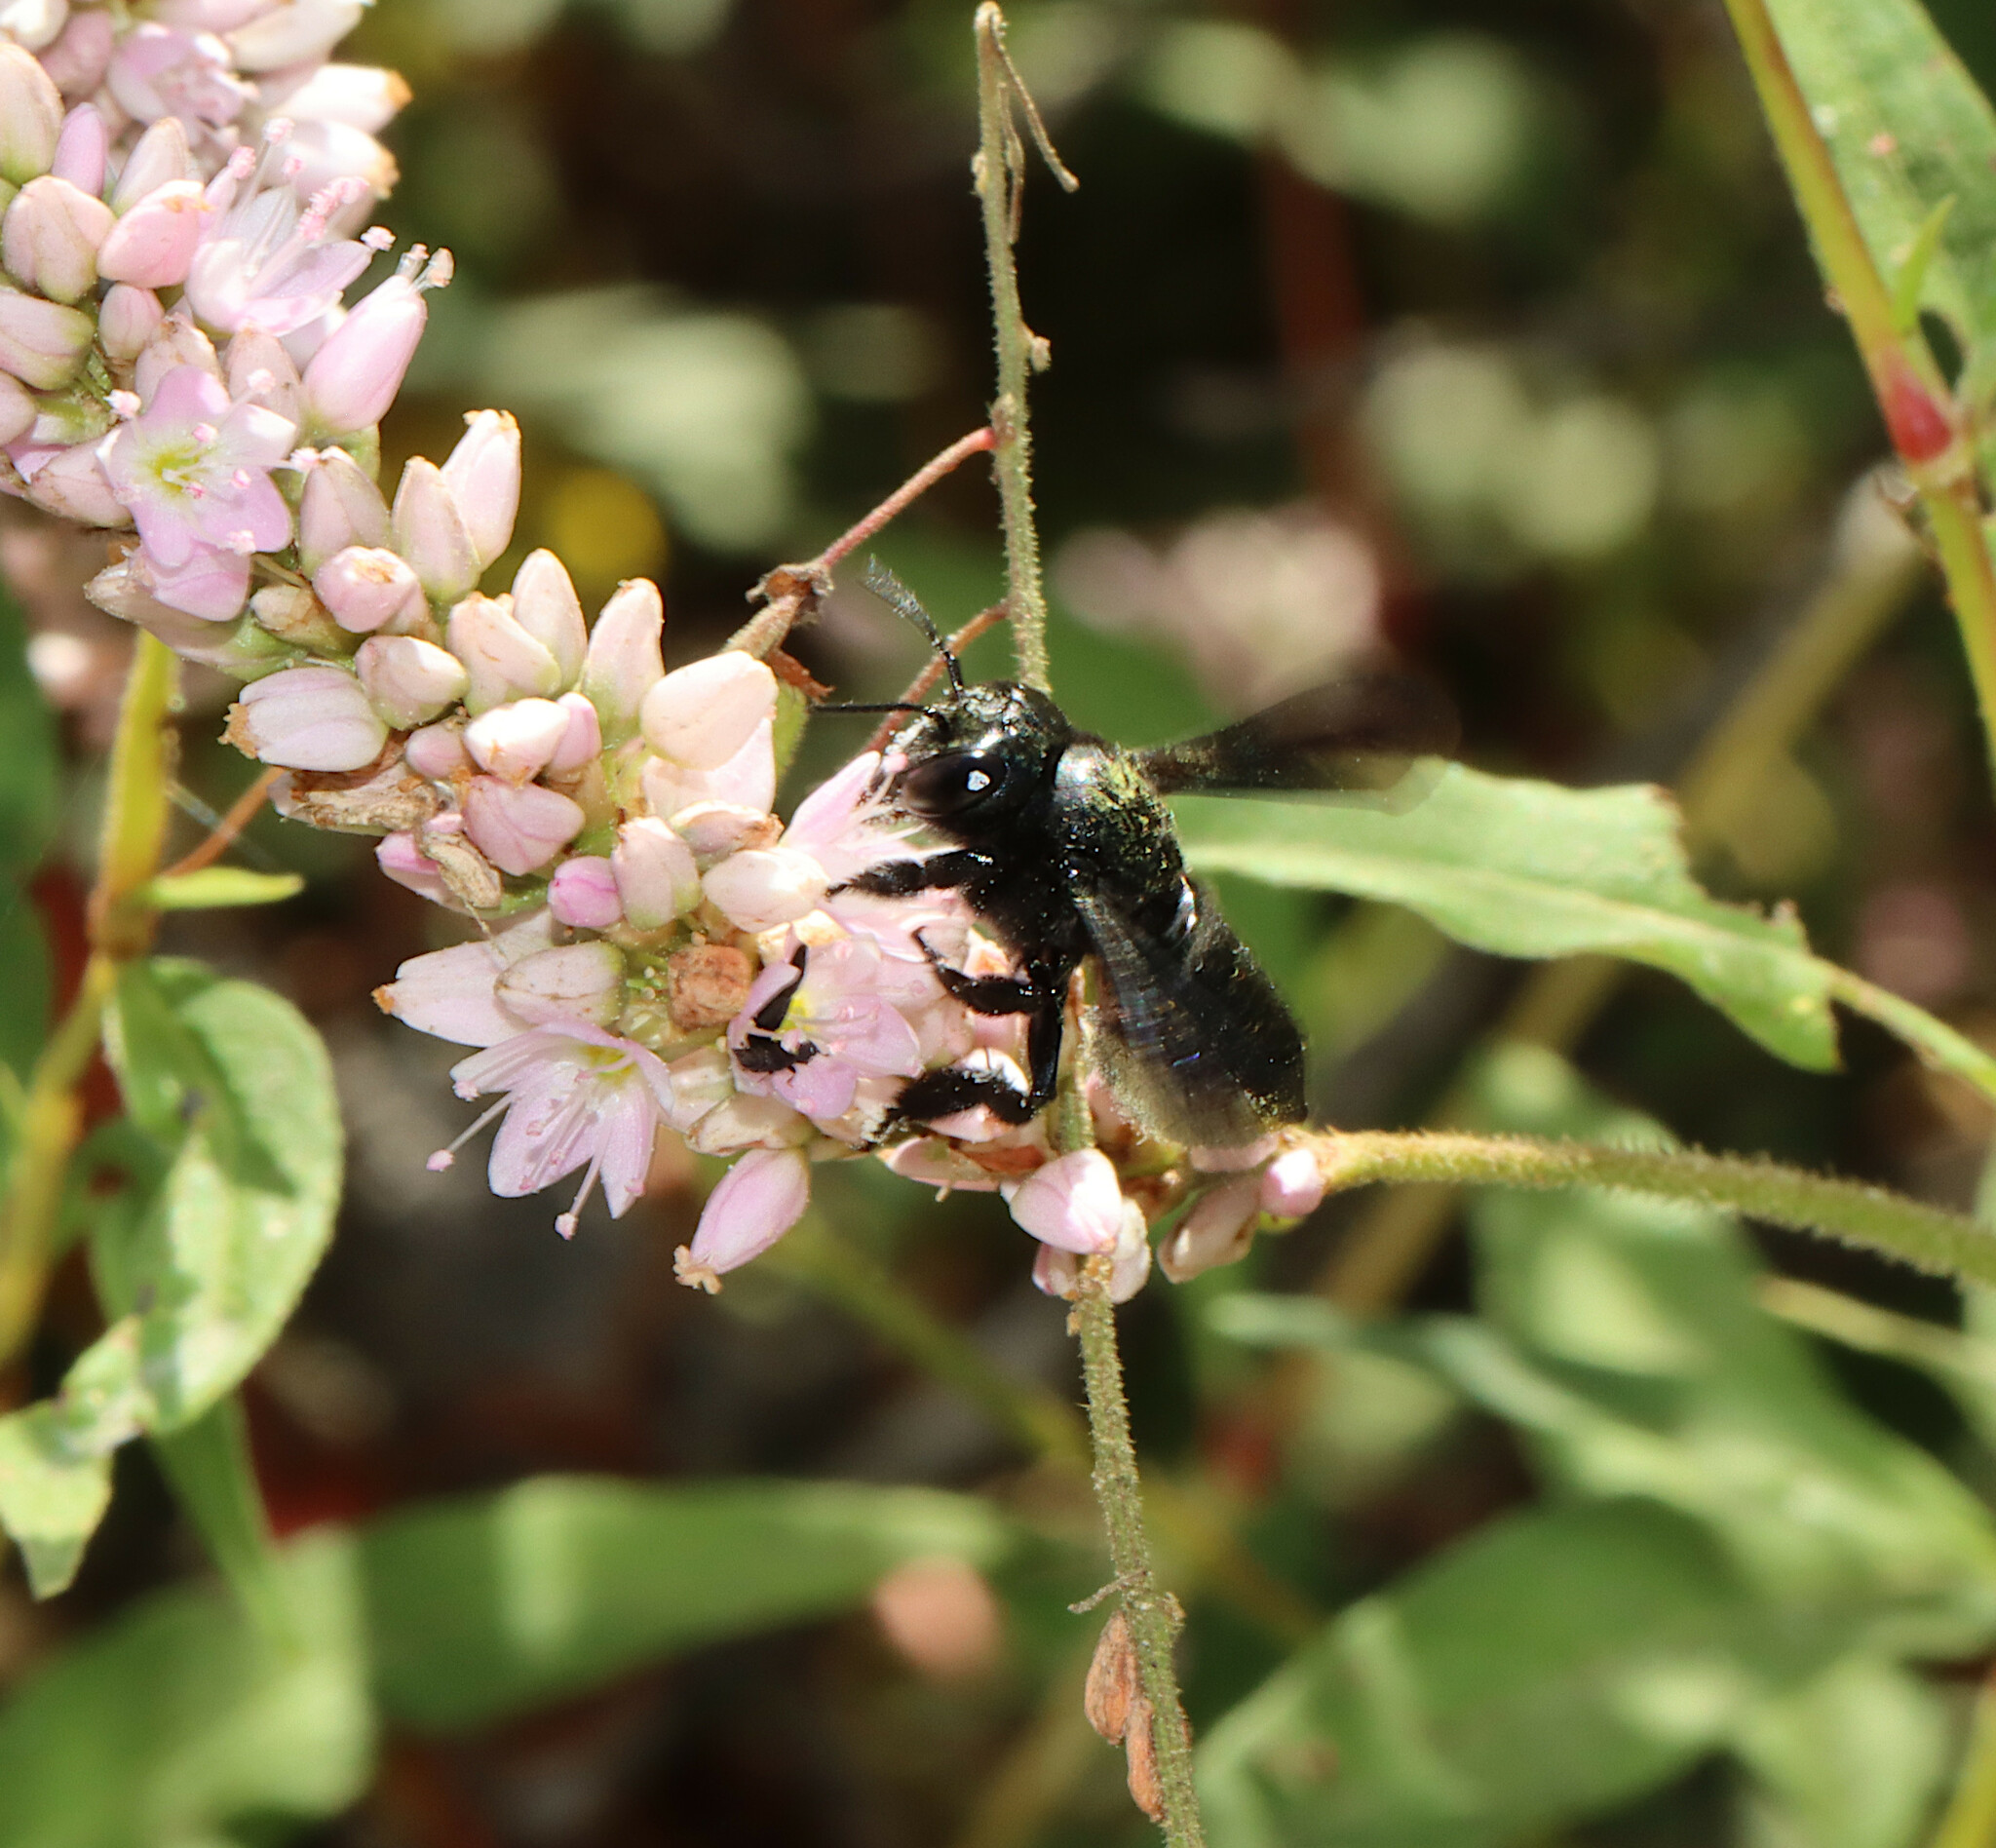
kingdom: Animalia
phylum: Arthropoda
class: Insecta
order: Hymenoptera
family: Megachilidae
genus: Megachile
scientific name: Megachile xylocopoides
